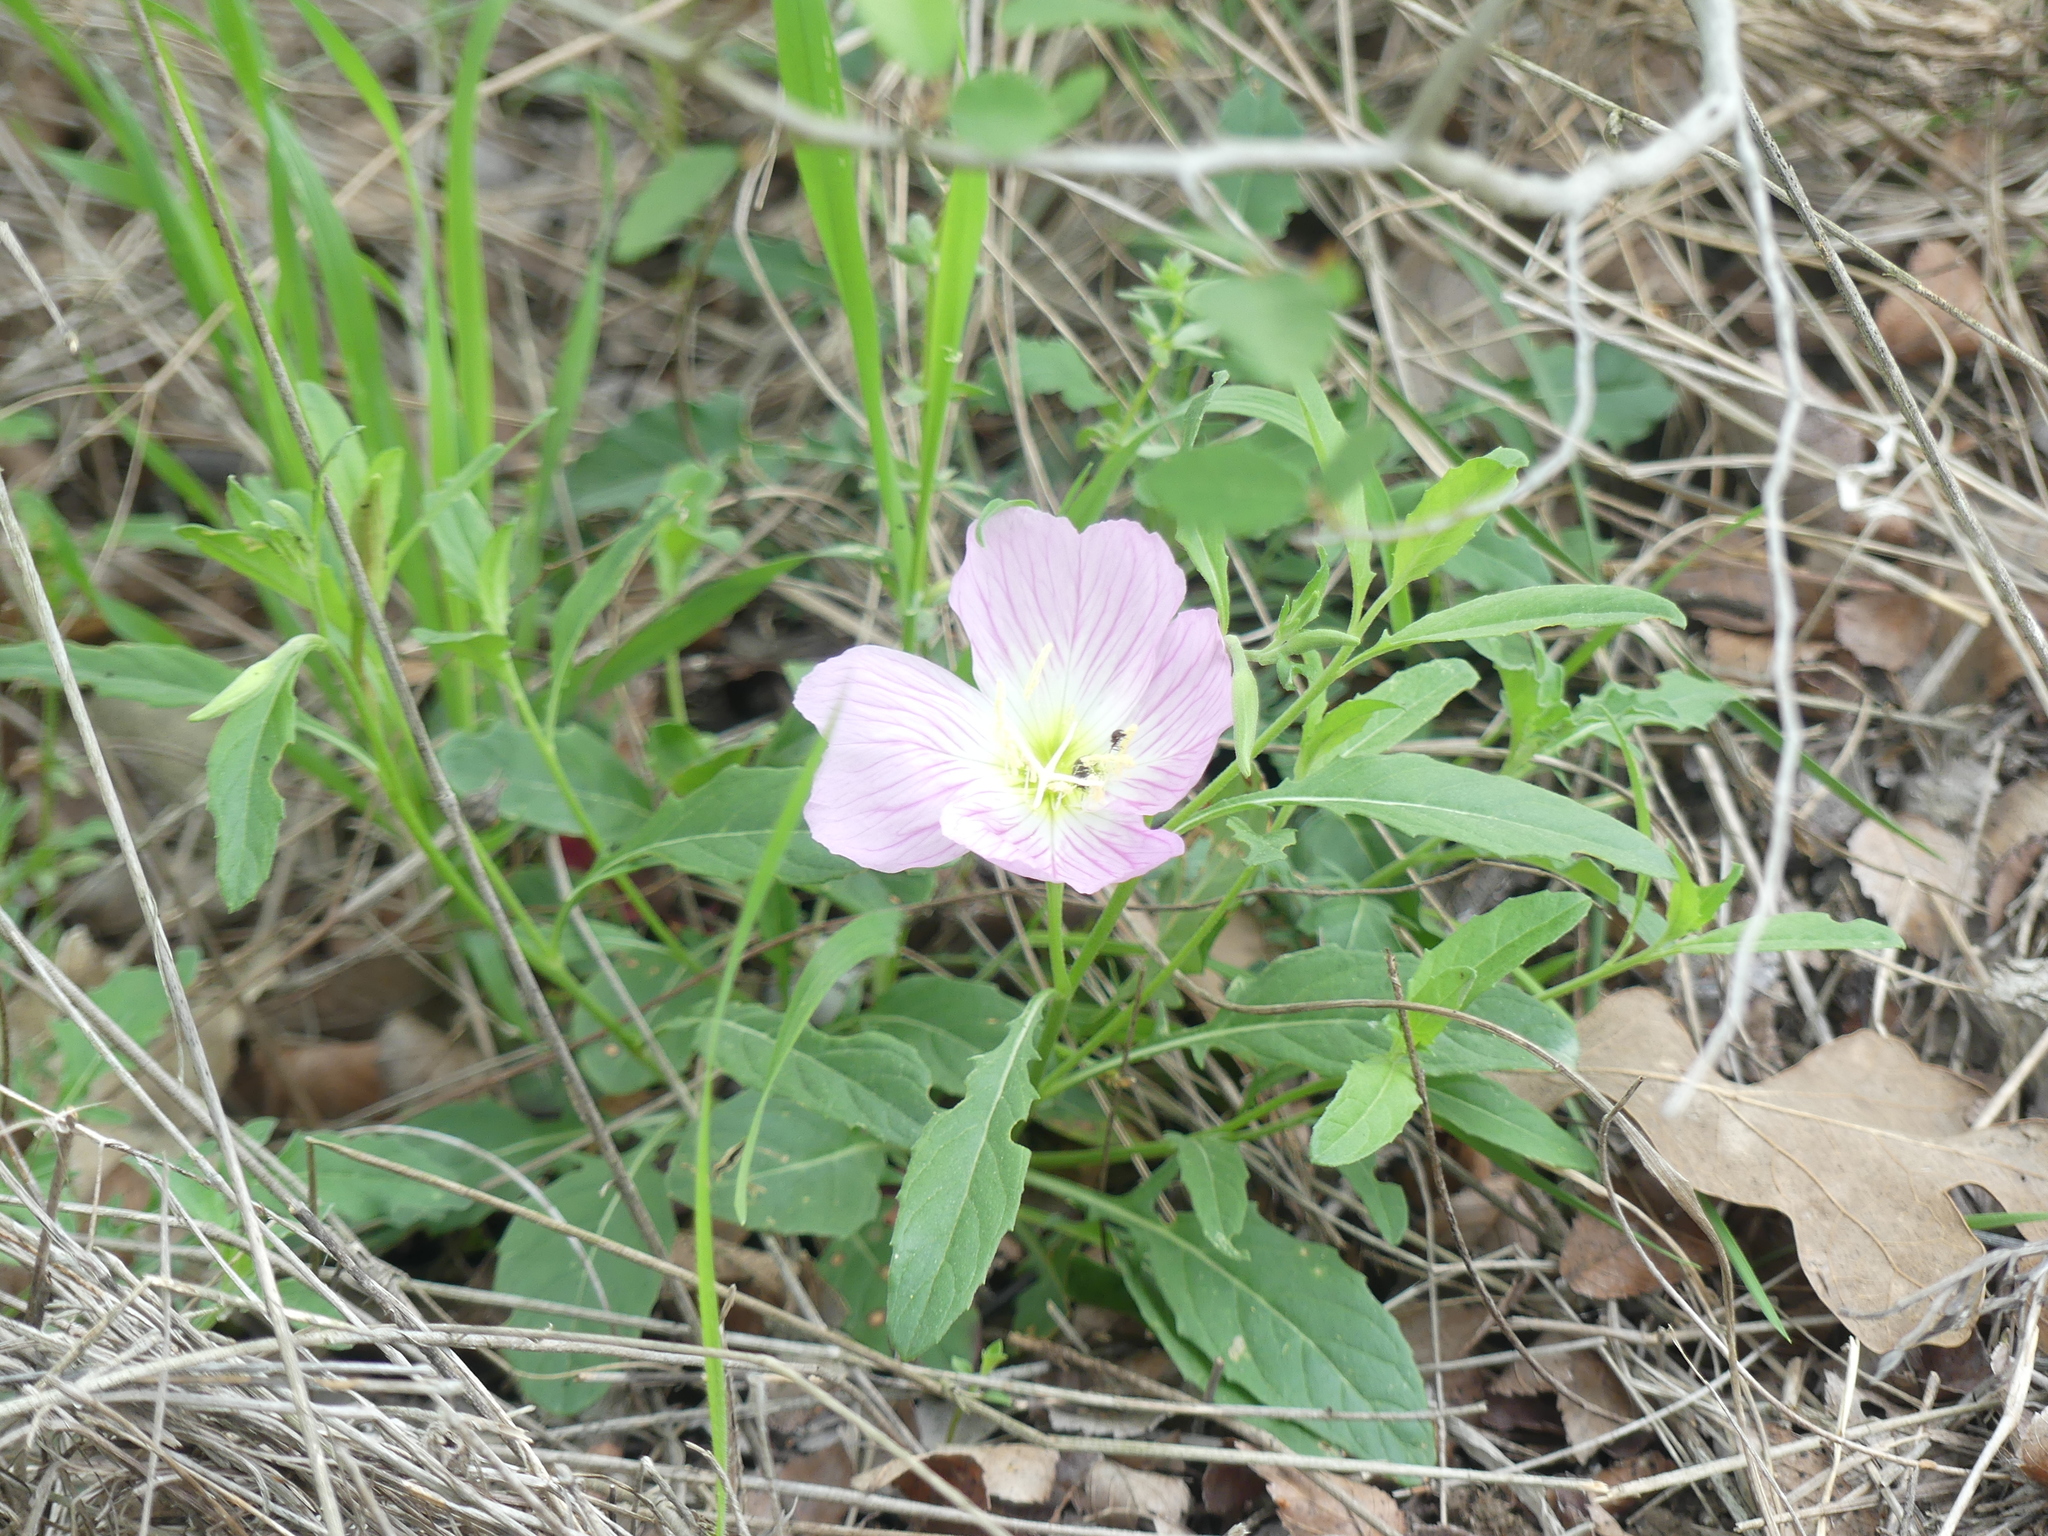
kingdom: Plantae
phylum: Tracheophyta
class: Magnoliopsida
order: Myrtales
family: Onagraceae
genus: Oenothera
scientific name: Oenothera speciosa
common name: White evening-primrose
